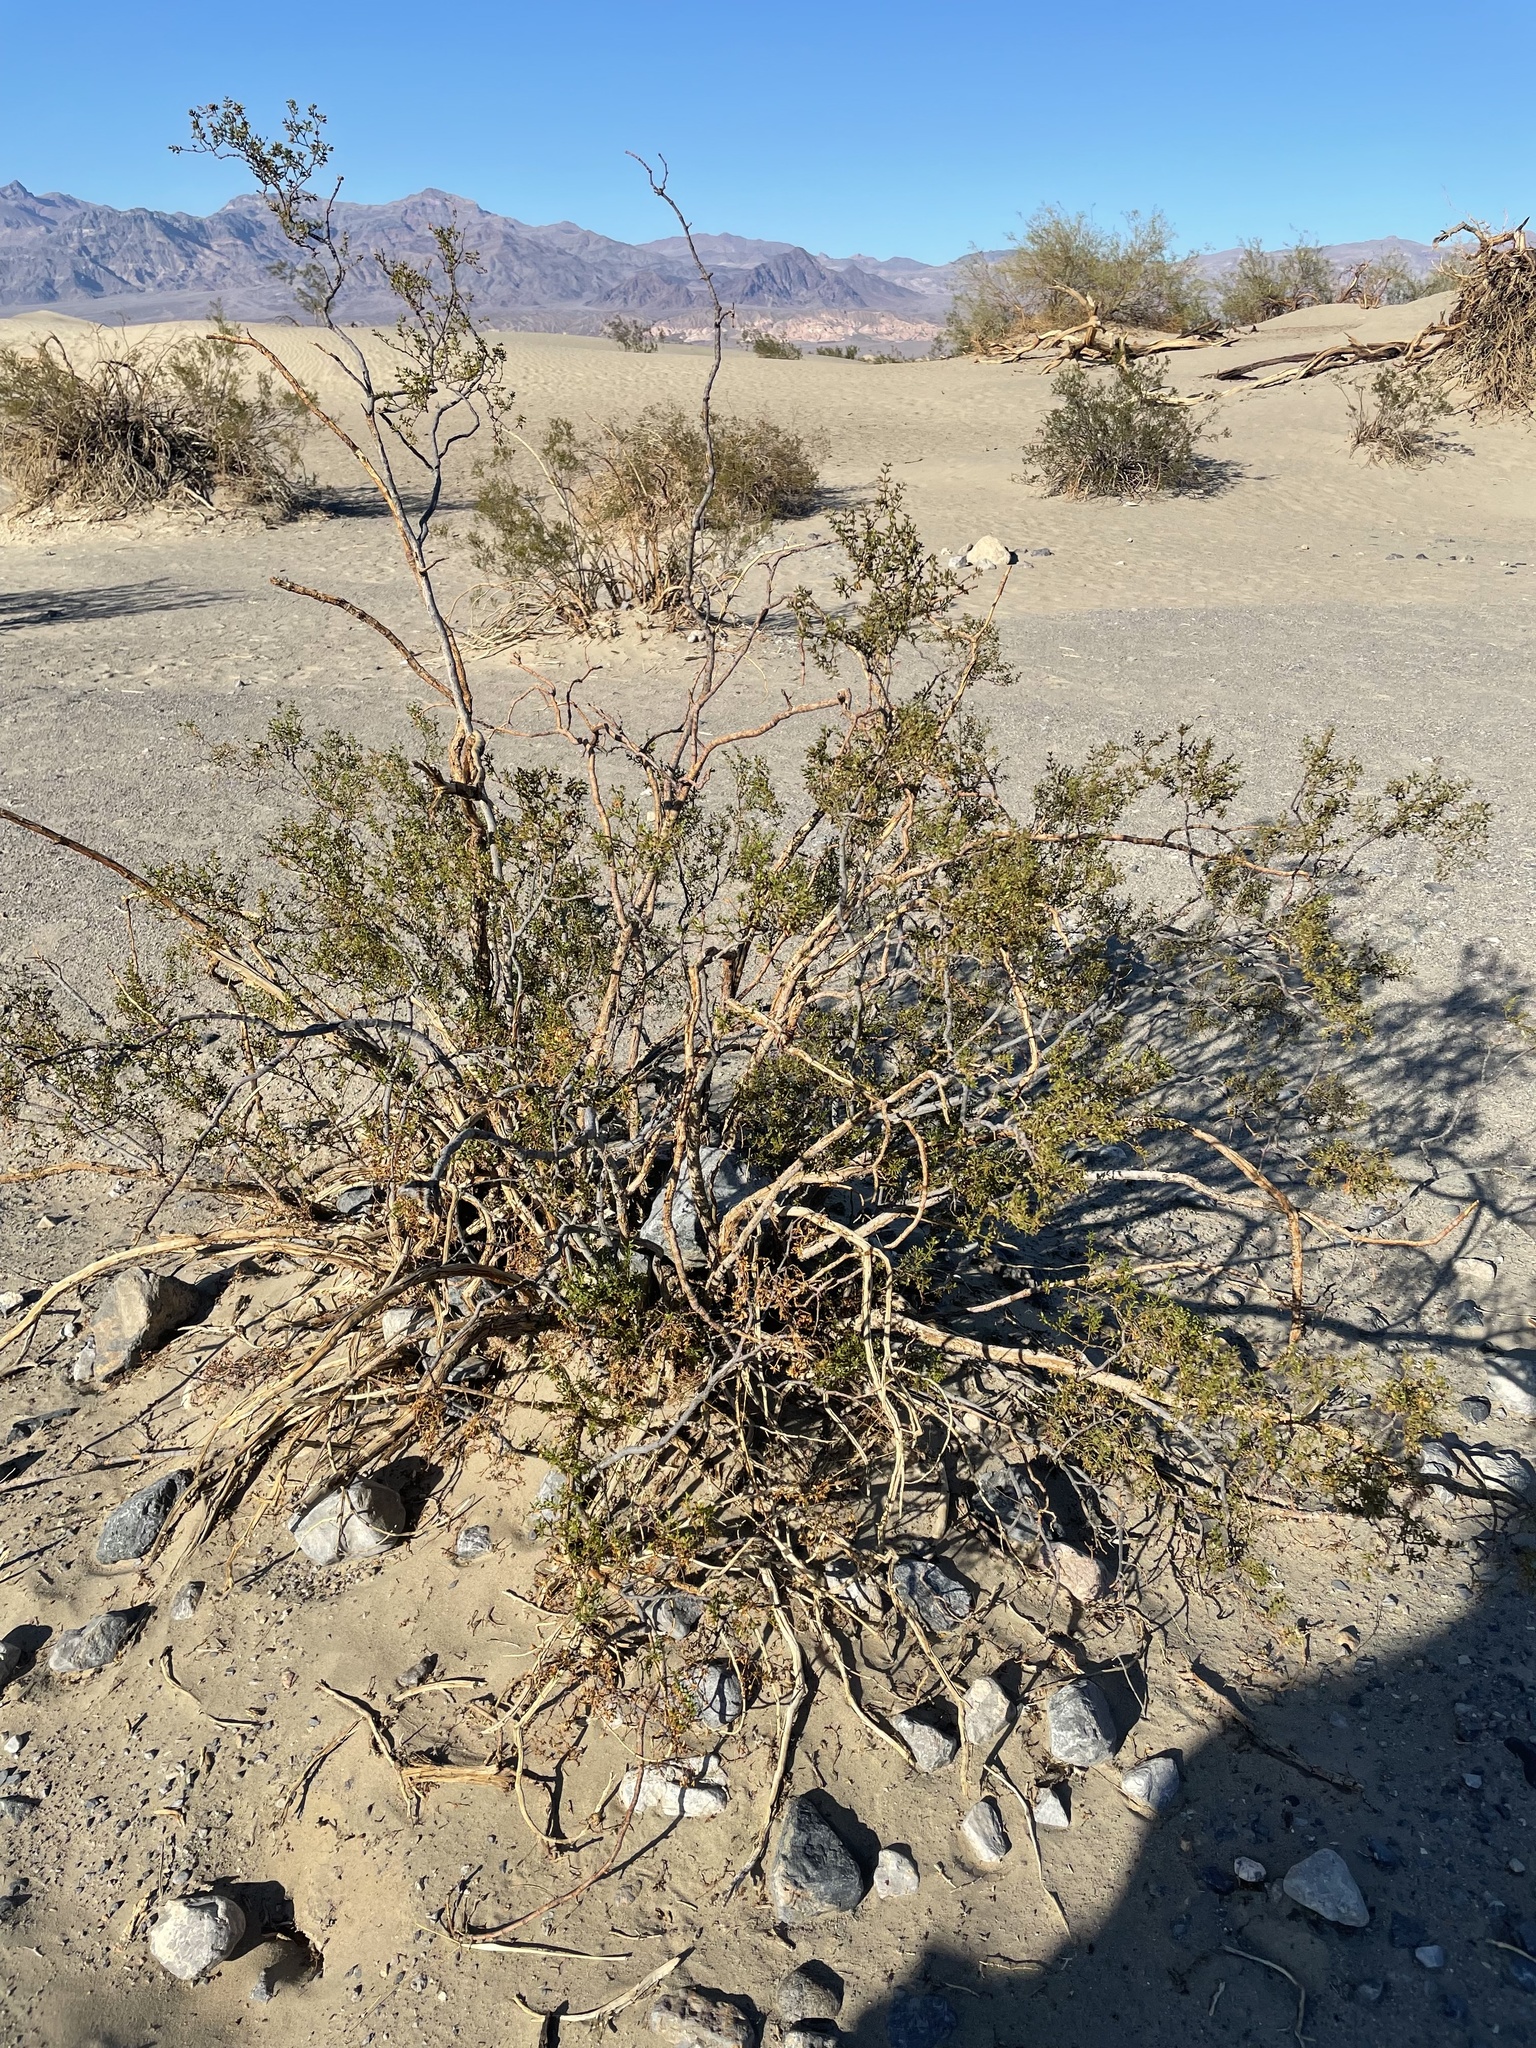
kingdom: Plantae
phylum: Tracheophyta
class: Magnoliopsida
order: Zygophyllales
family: Zygophyllaceae
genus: Larrea
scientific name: Larrea tridentata
